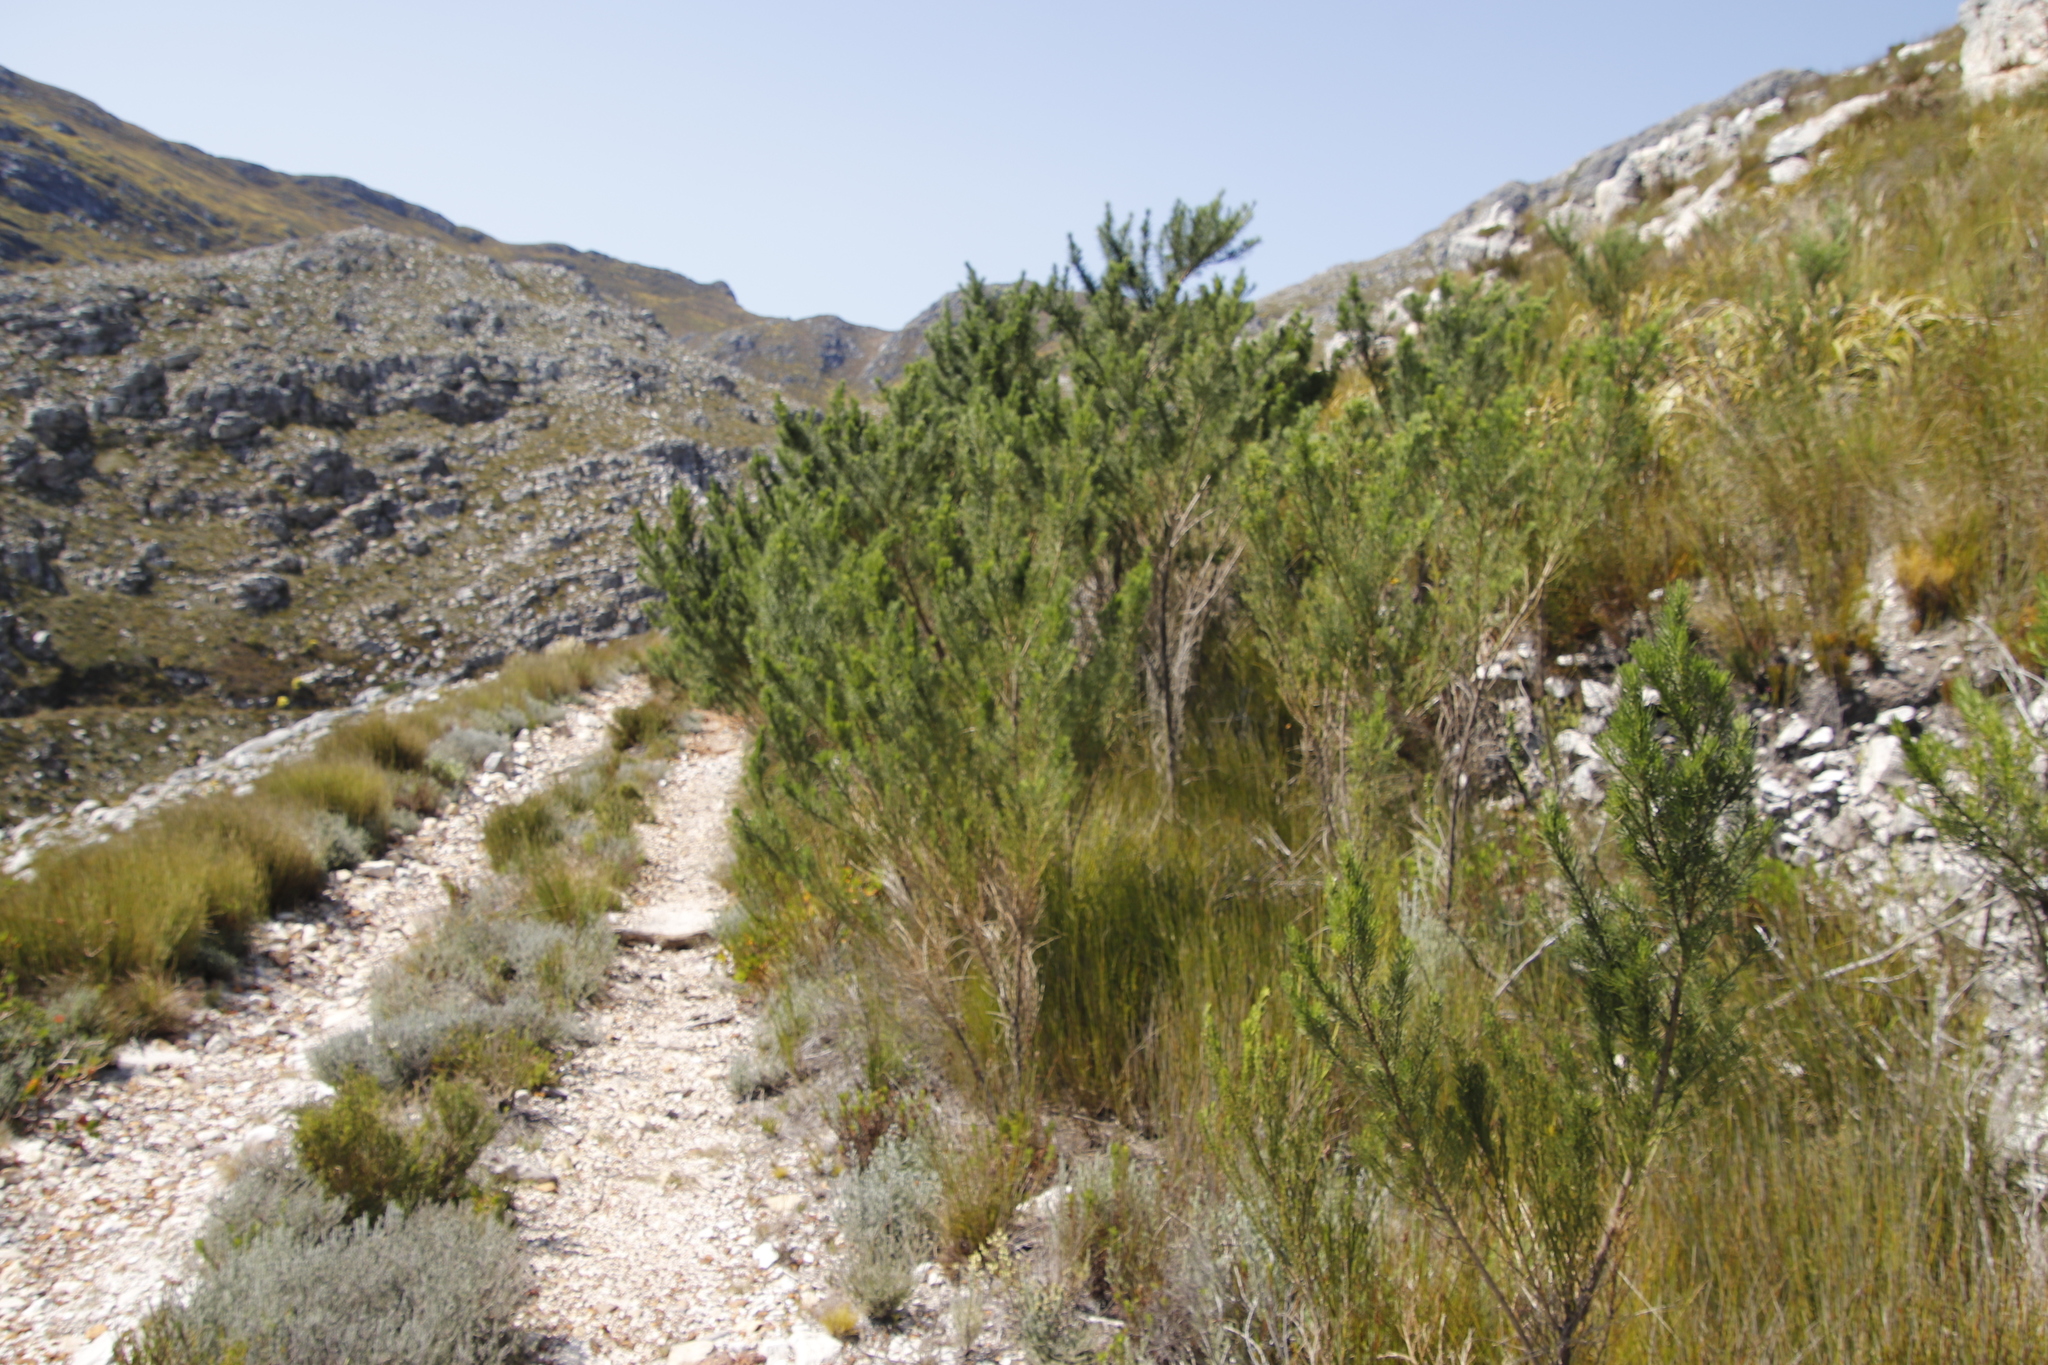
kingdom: Plantae
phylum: Tracheophyta
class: Magnoliopsida
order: Fabales
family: Fabaceae
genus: Psoralea
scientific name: Psoralea pinnata
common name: African scurfpea
